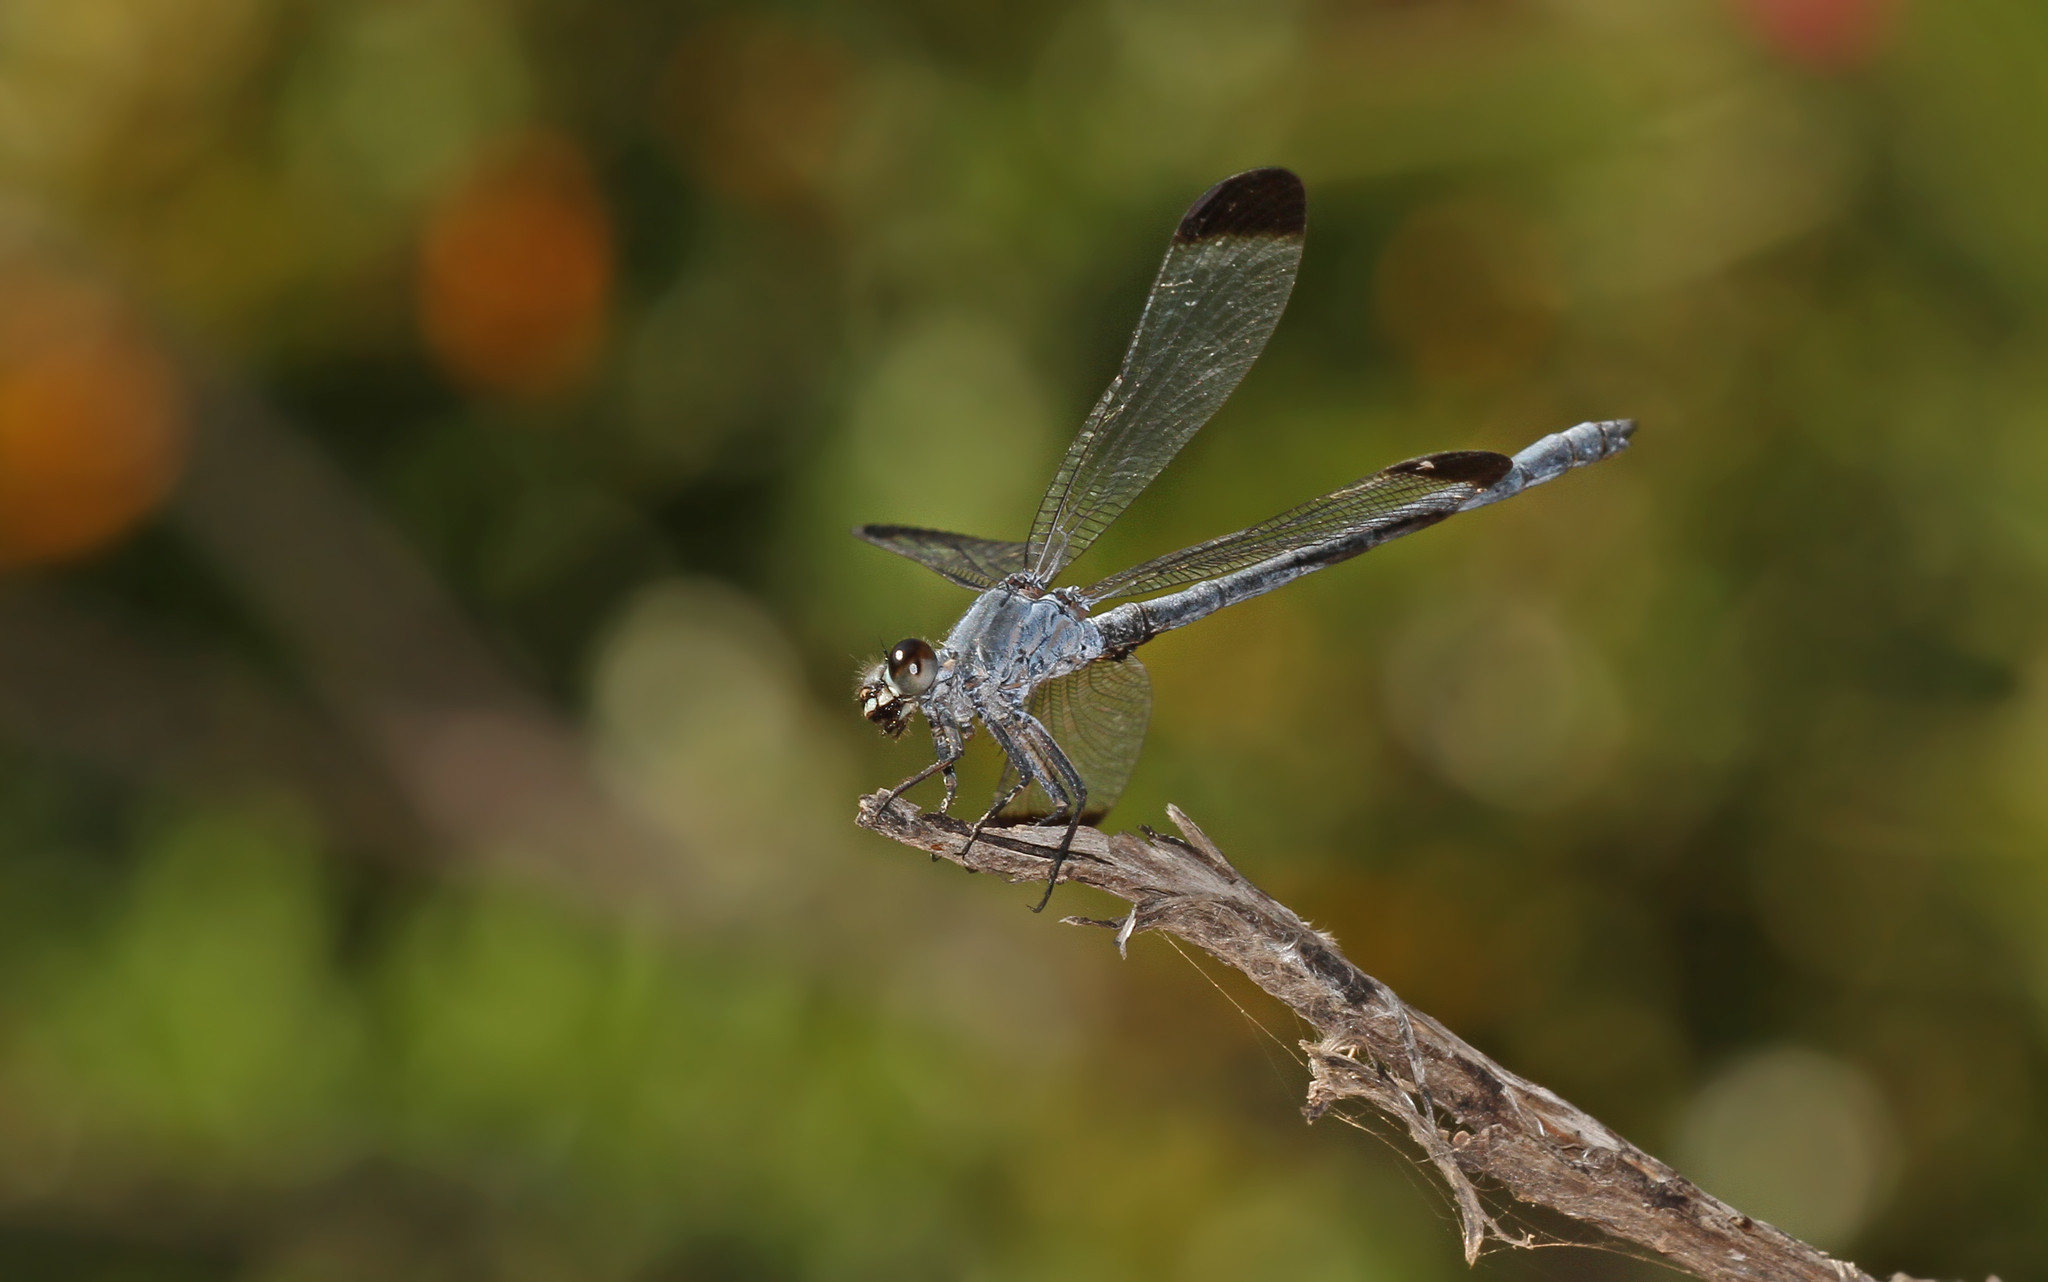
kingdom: Animalia
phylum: Arthropoda
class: Insecta
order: Odonata
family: Euphaeidae
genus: Epallage
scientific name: Epallage fatime
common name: Odalisque
